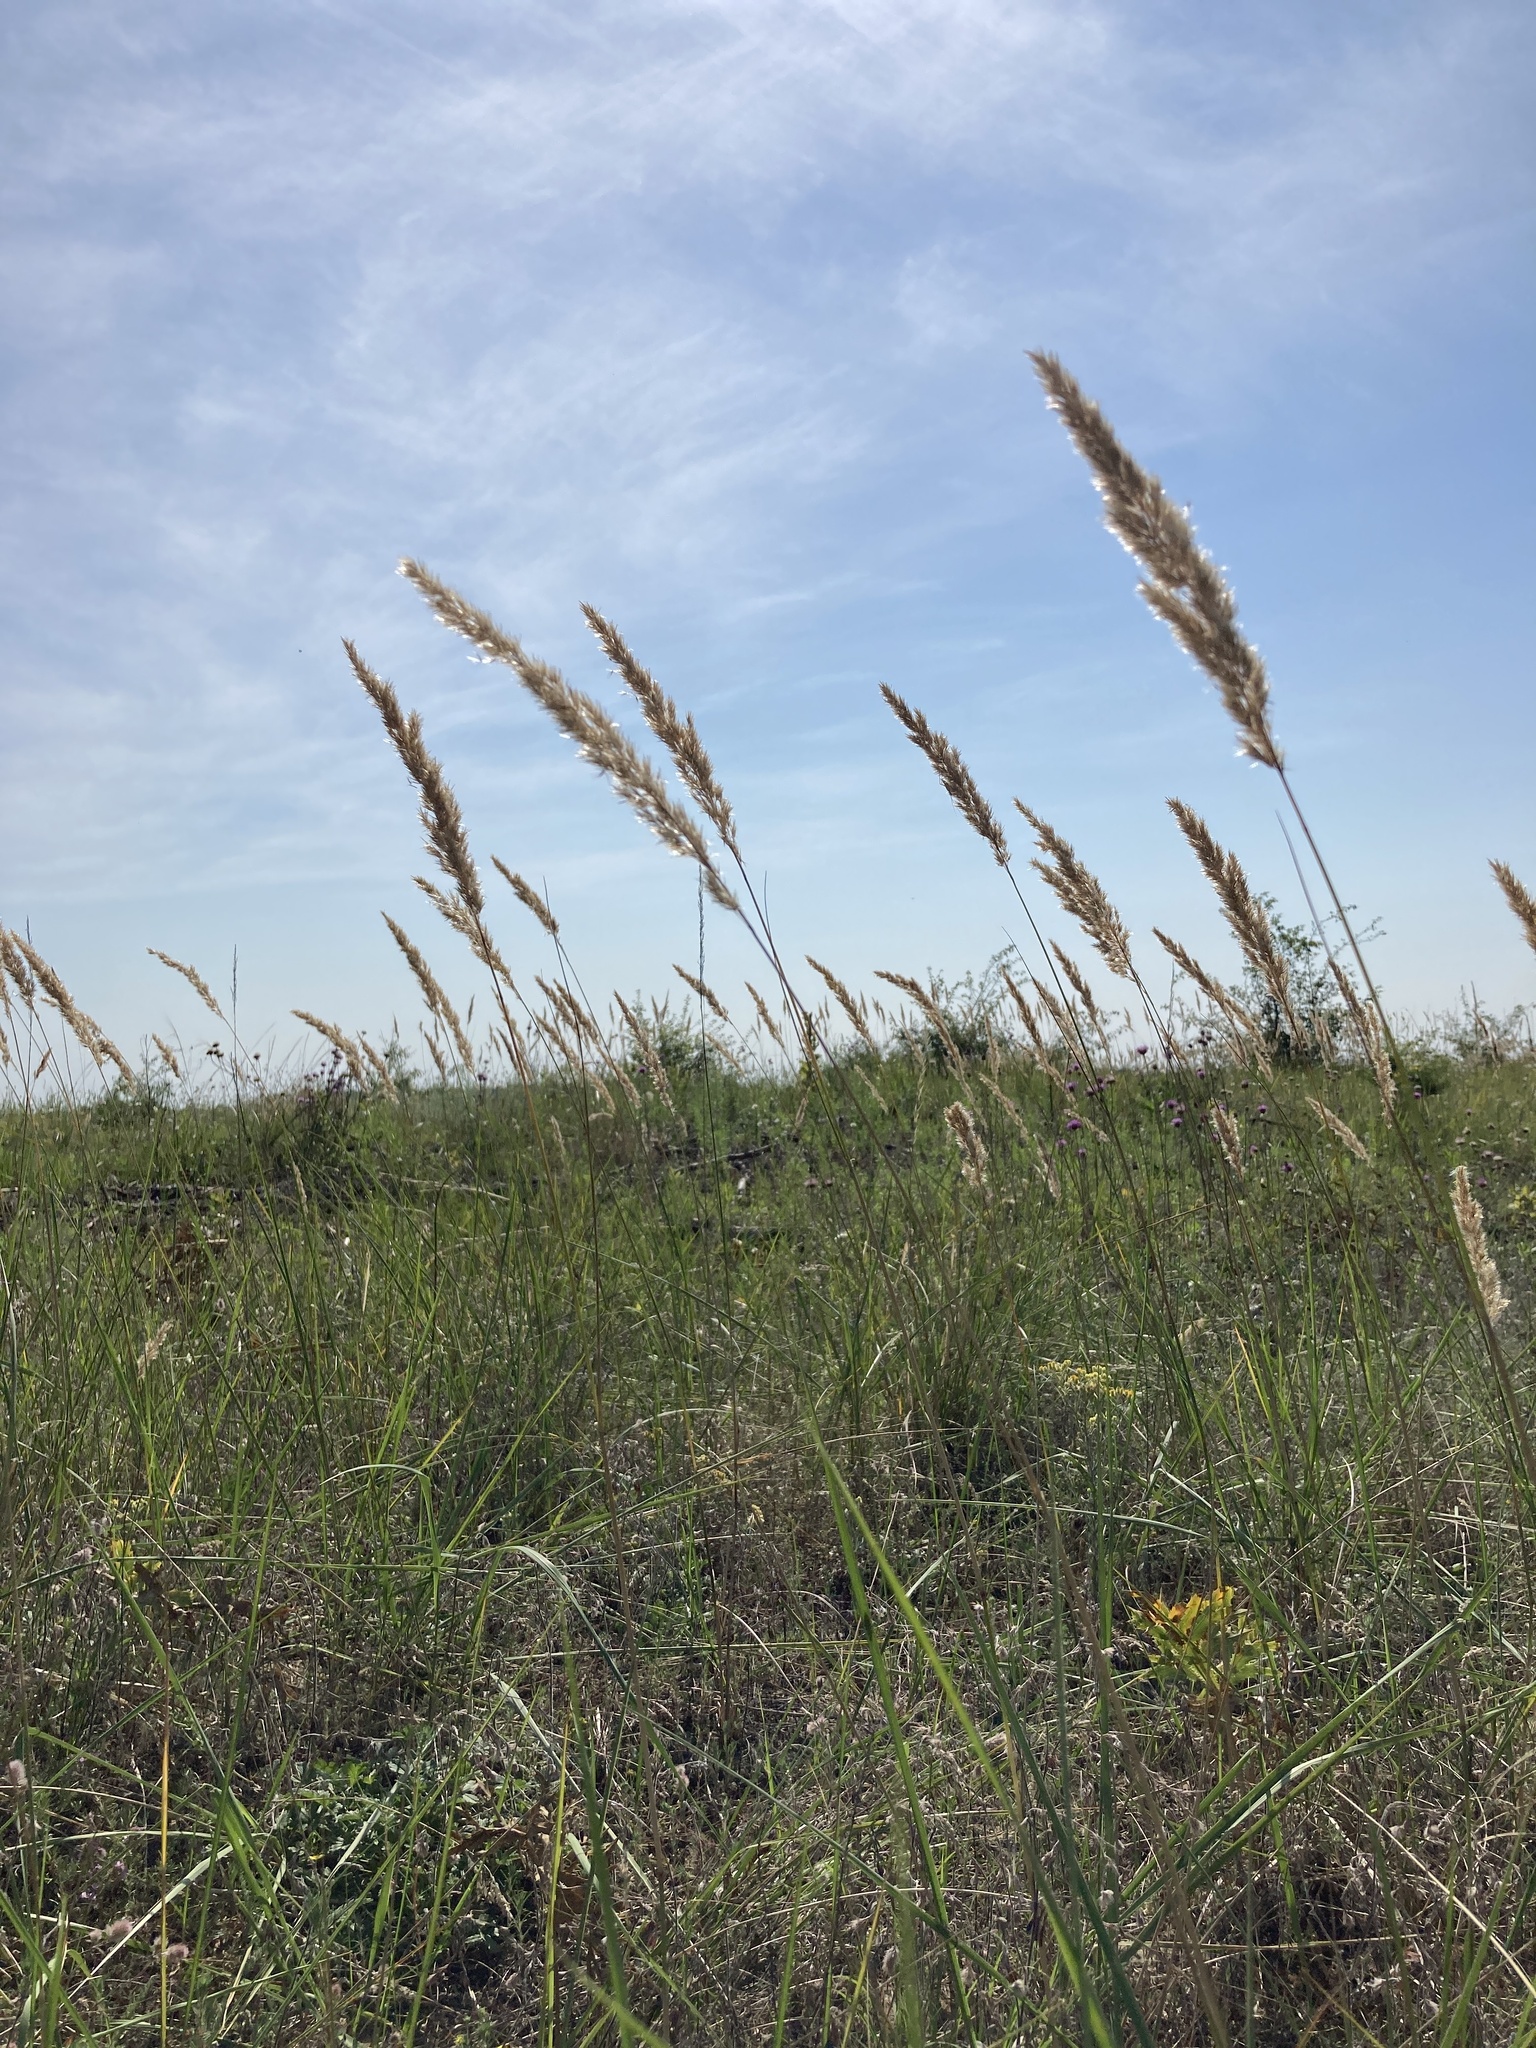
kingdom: Plantae
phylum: Tracheophyta
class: Liliopsida
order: Poales
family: Poaceae
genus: Calamagrostis
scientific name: Calamagrostis epigejos
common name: Wood small-reed
